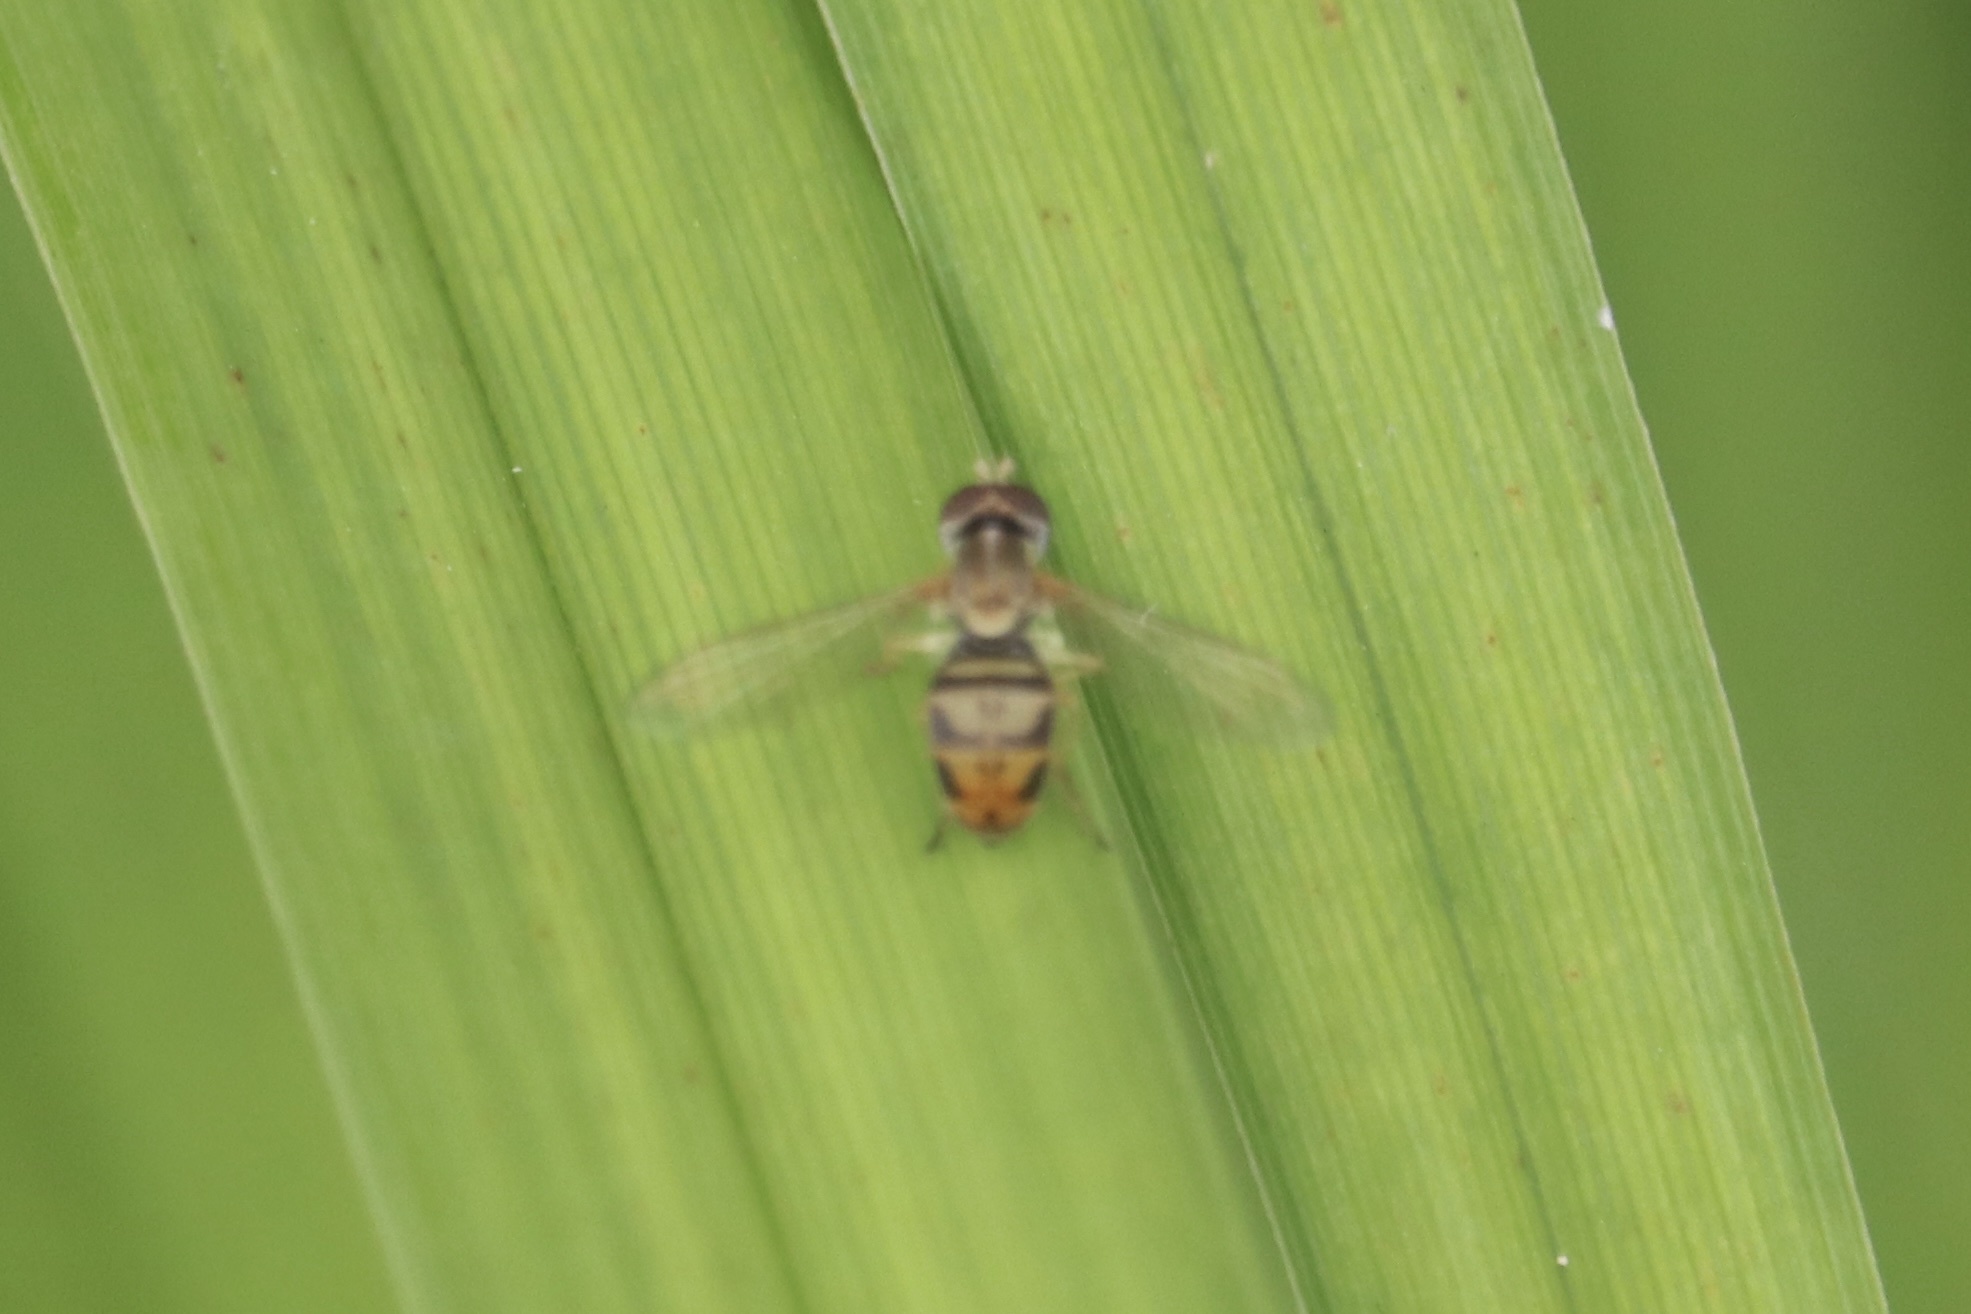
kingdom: Animalia
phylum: Arthropoda
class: Insecta
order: Diptera
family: Syrphidae
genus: Toxomerus
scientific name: Toxomerus marginatus
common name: Syrphid fly
